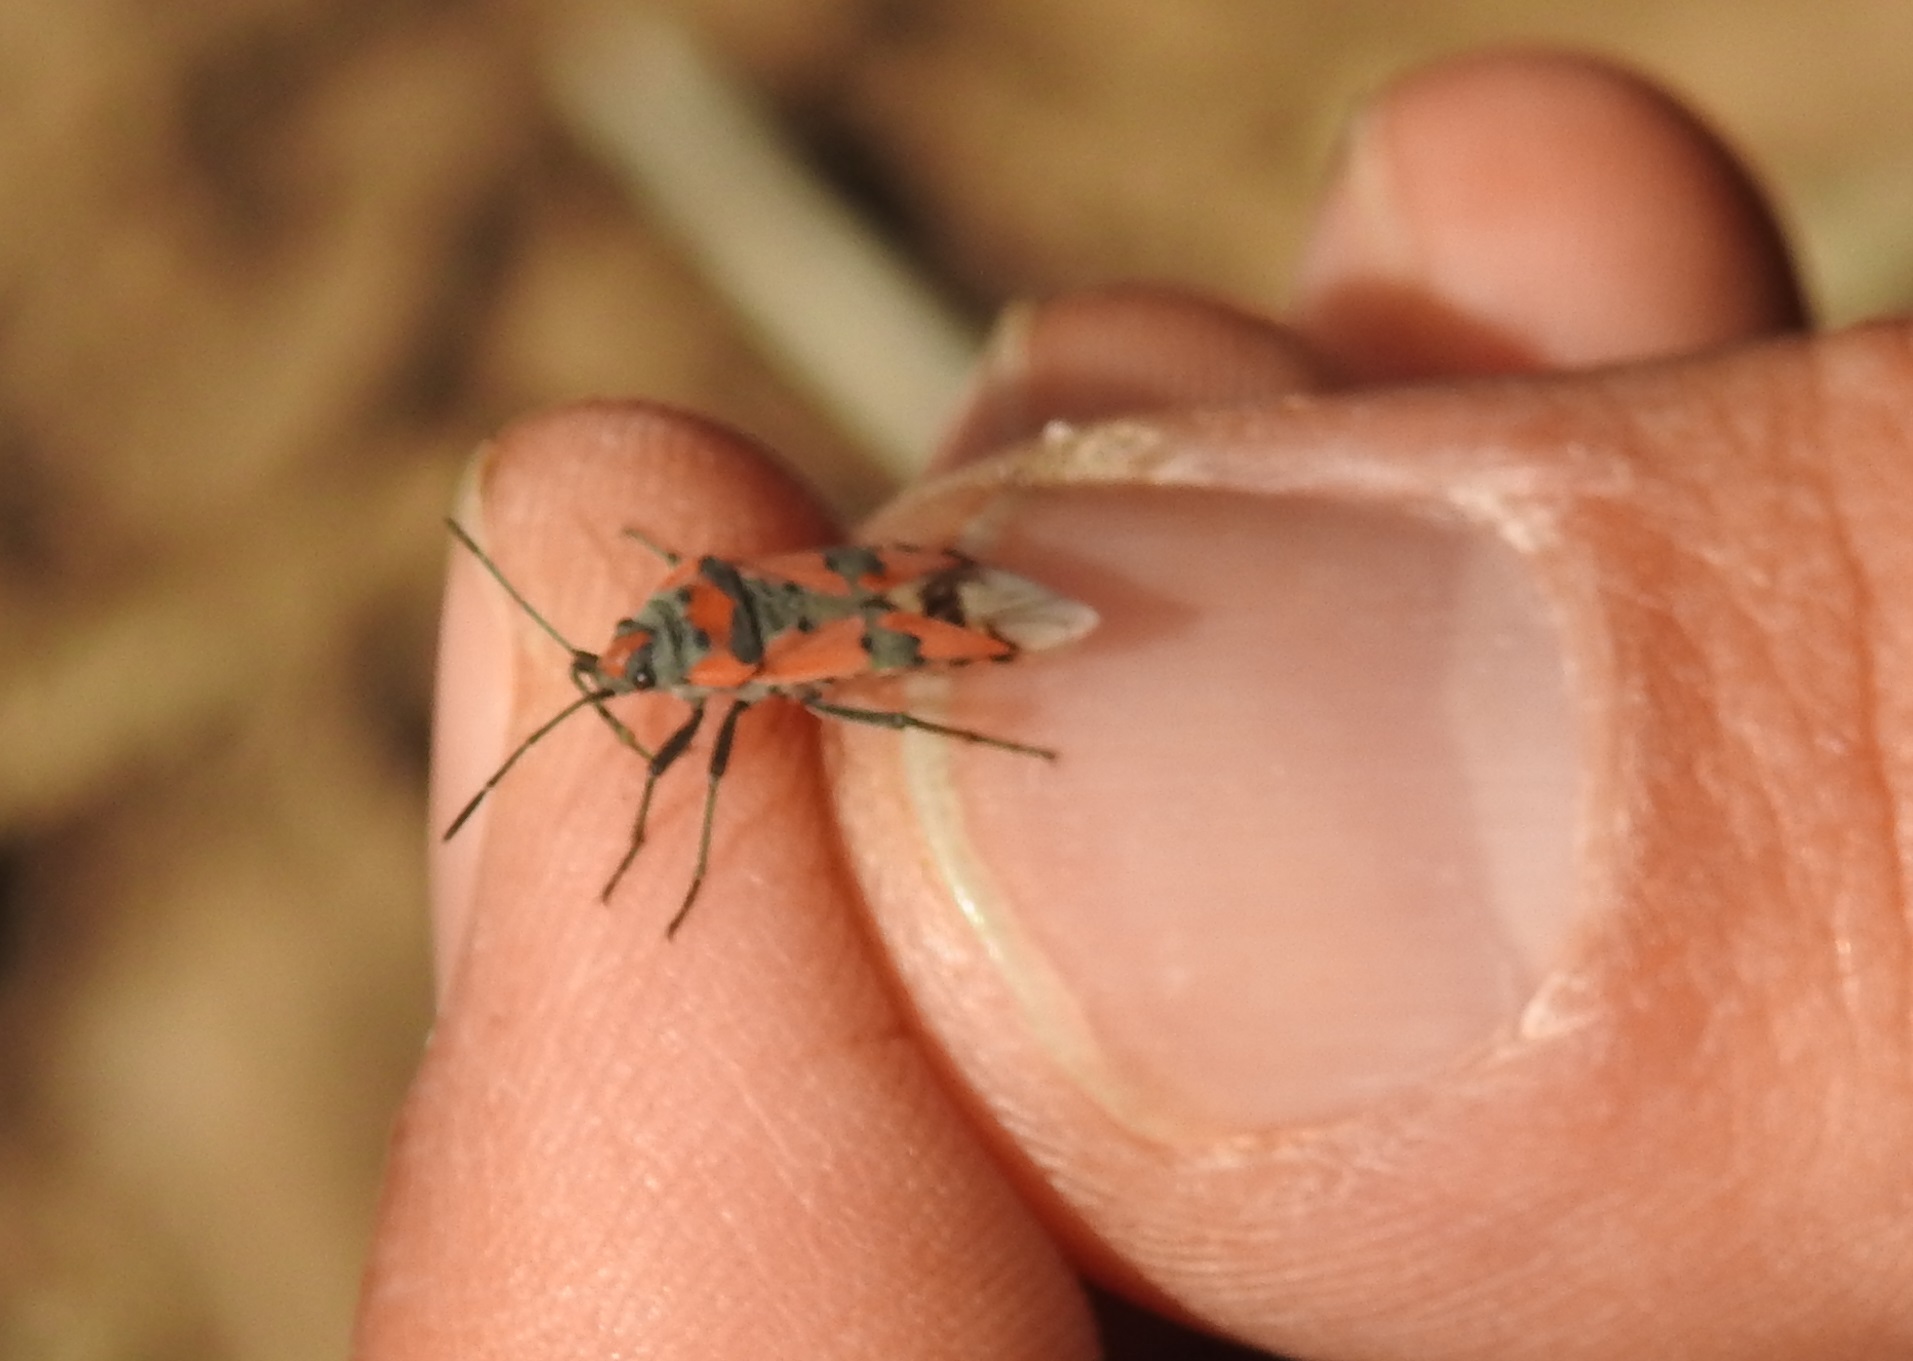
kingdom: Animalia
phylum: Arthropoda
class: Insecta
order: Hemiptera
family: Lygaeidae
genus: Lygaeus
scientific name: Lygaeus equestris
